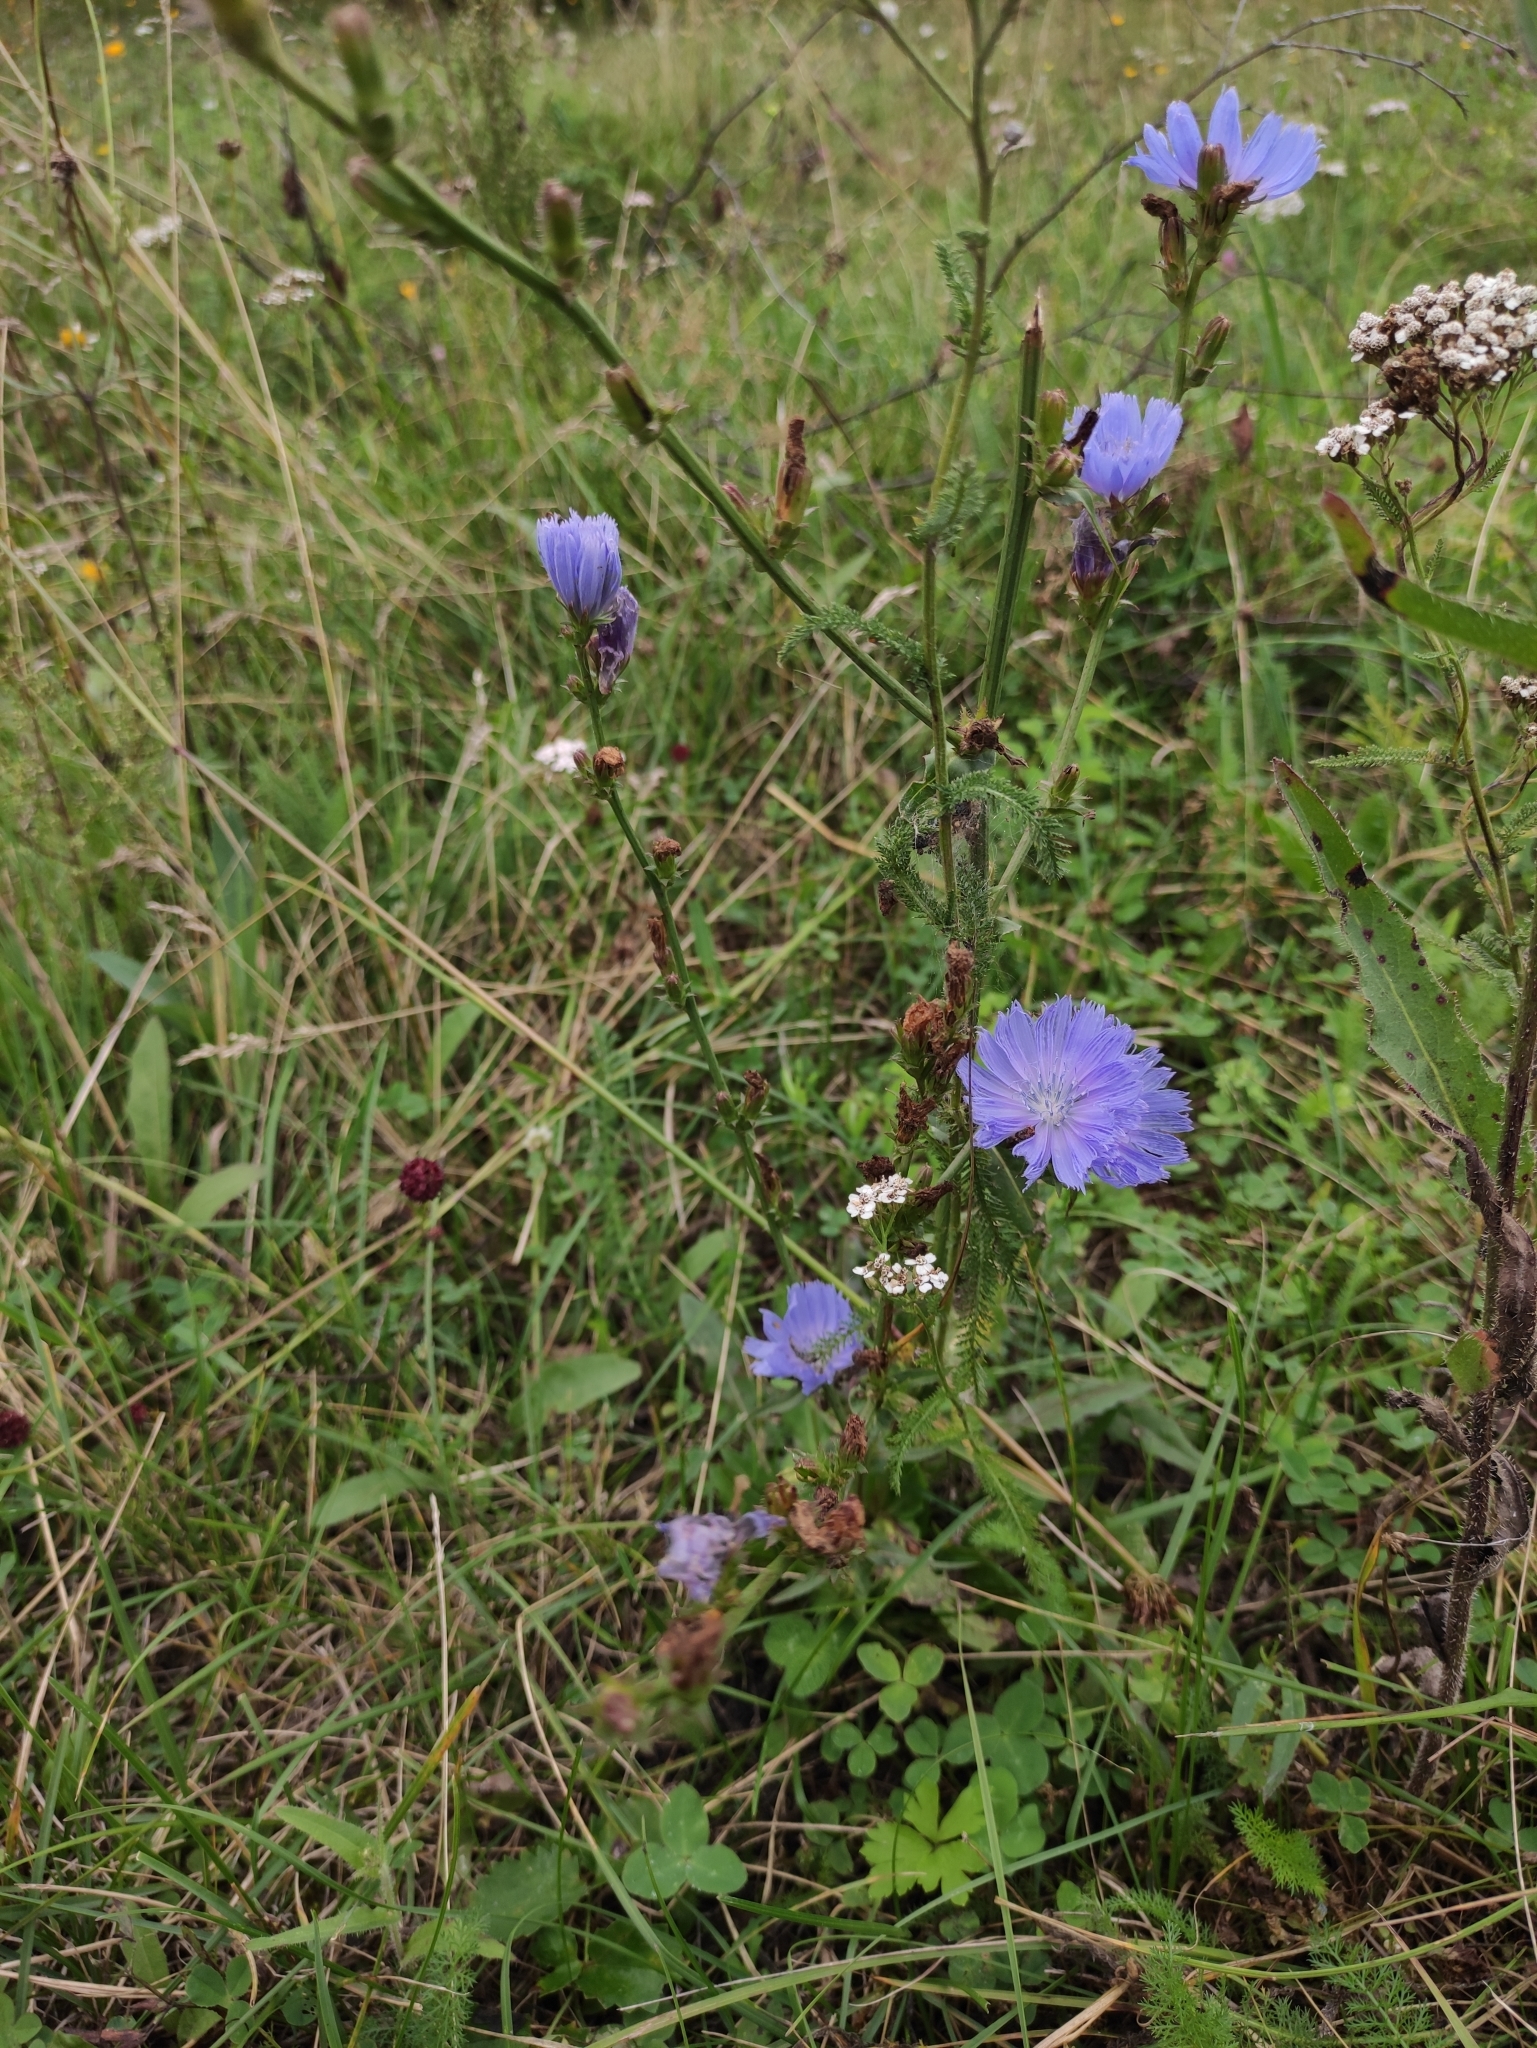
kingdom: Plantae
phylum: Tracheophyta
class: Magnoliopsida
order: Asterales
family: Asteraceae
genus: Cichorium
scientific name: Cichorium intybus
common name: Chicory
